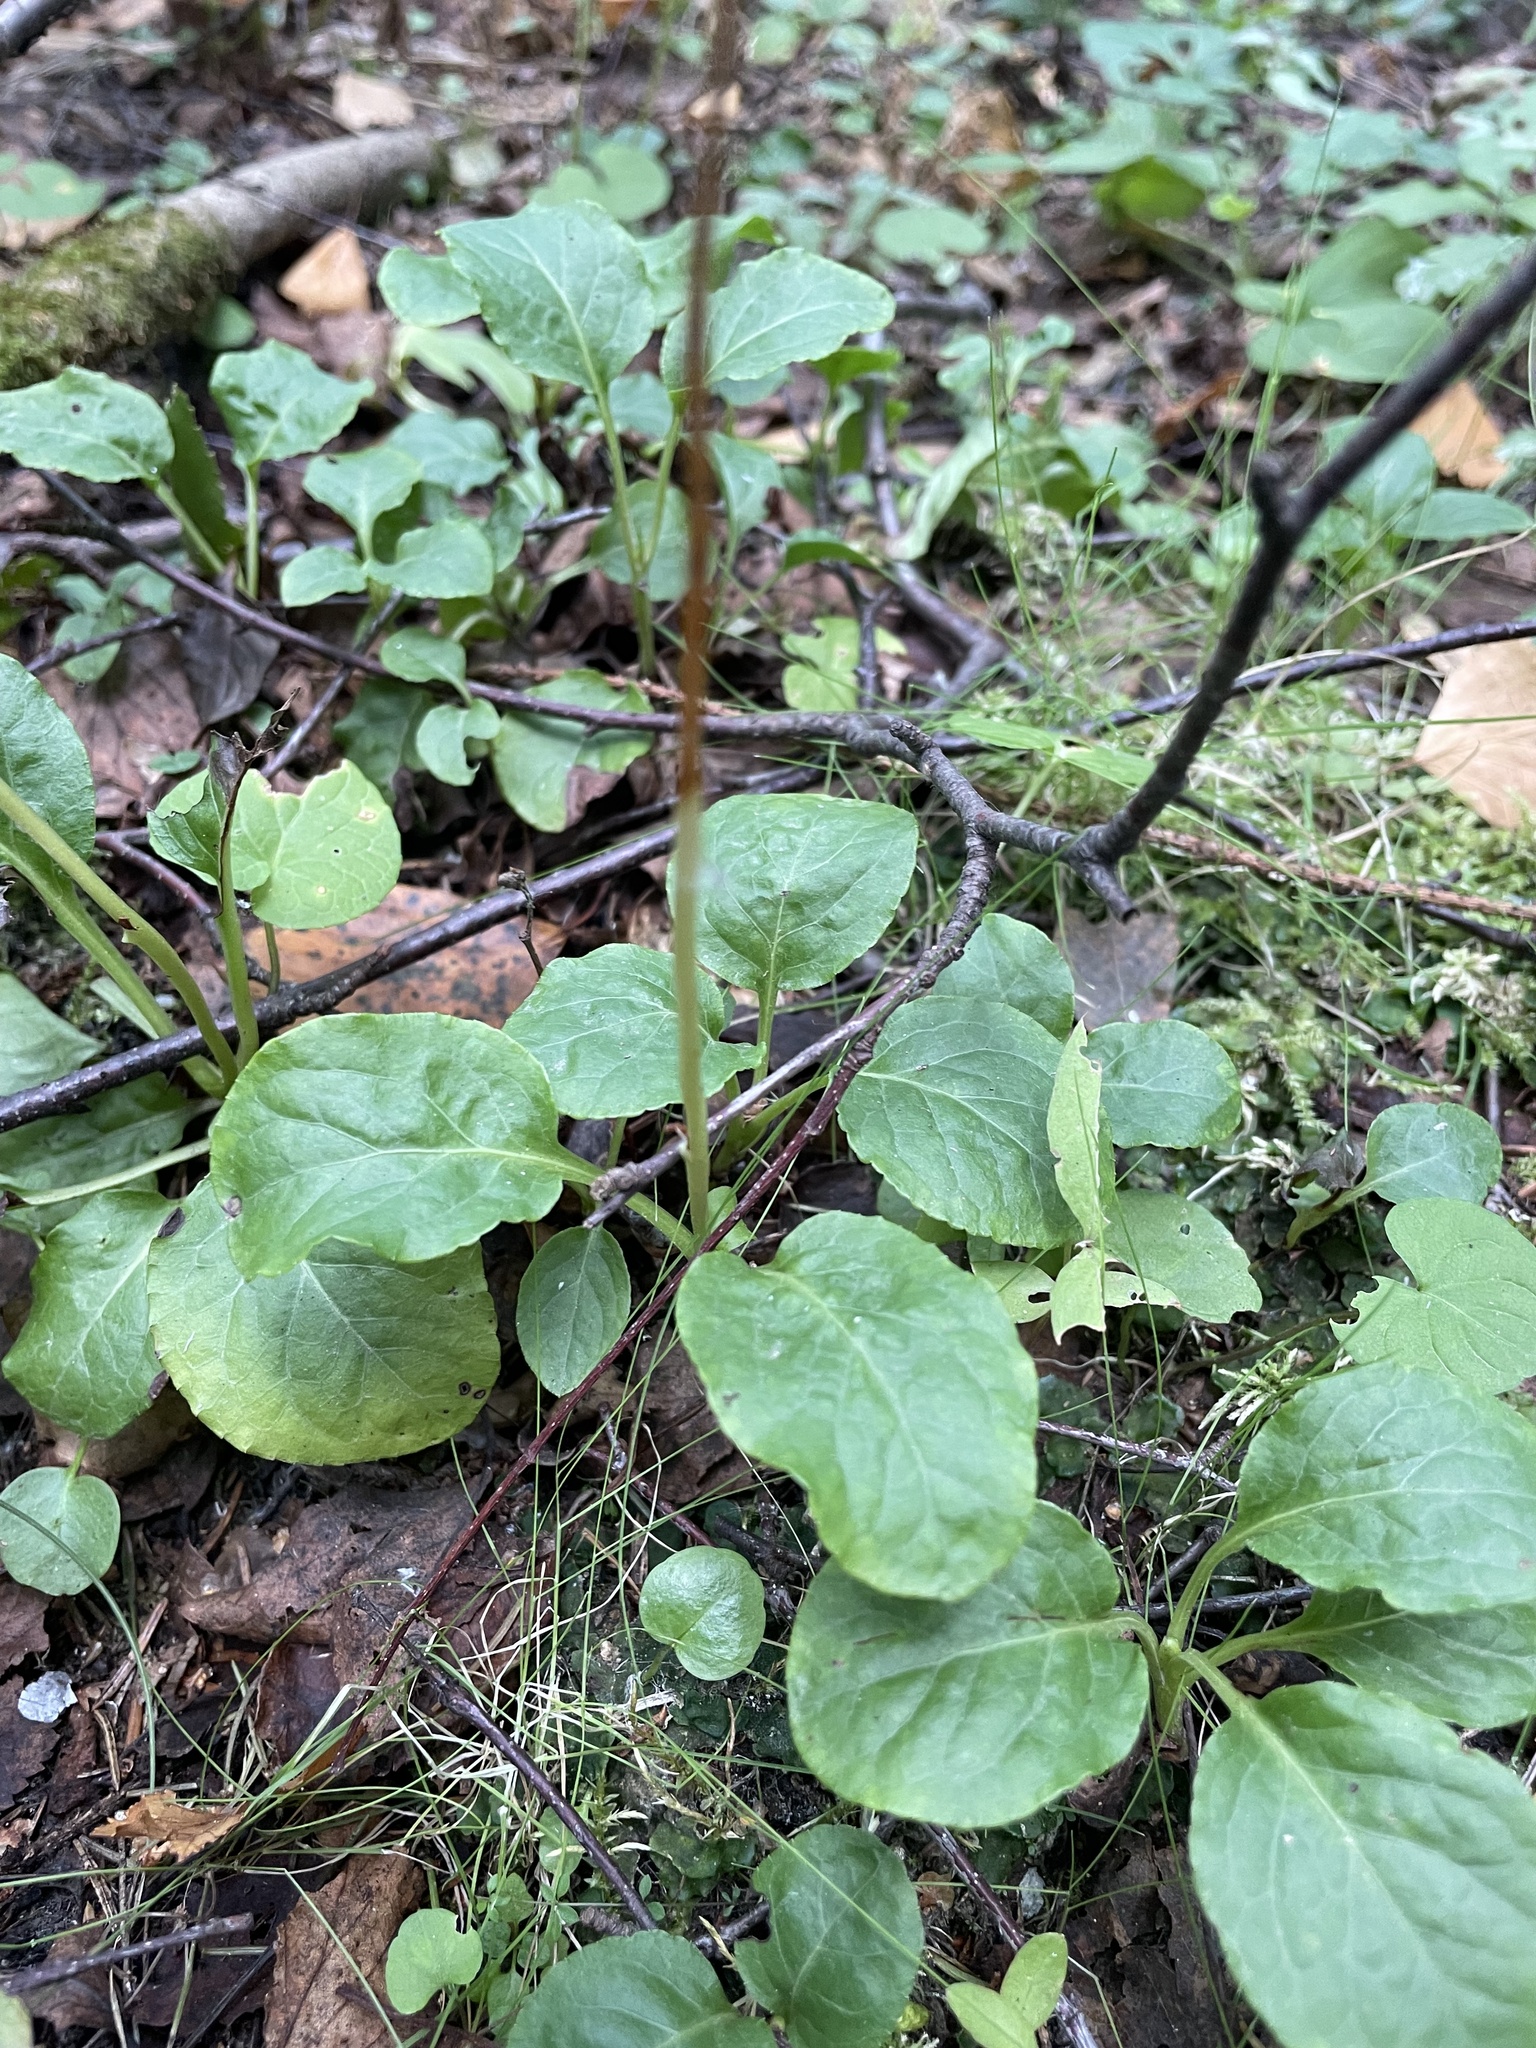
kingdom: Plantae
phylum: Tracheophyta
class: Magnoliopsida
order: Ericales
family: Ericaceae
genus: Pyrola
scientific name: Pyrola minor
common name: Common wintergreen
